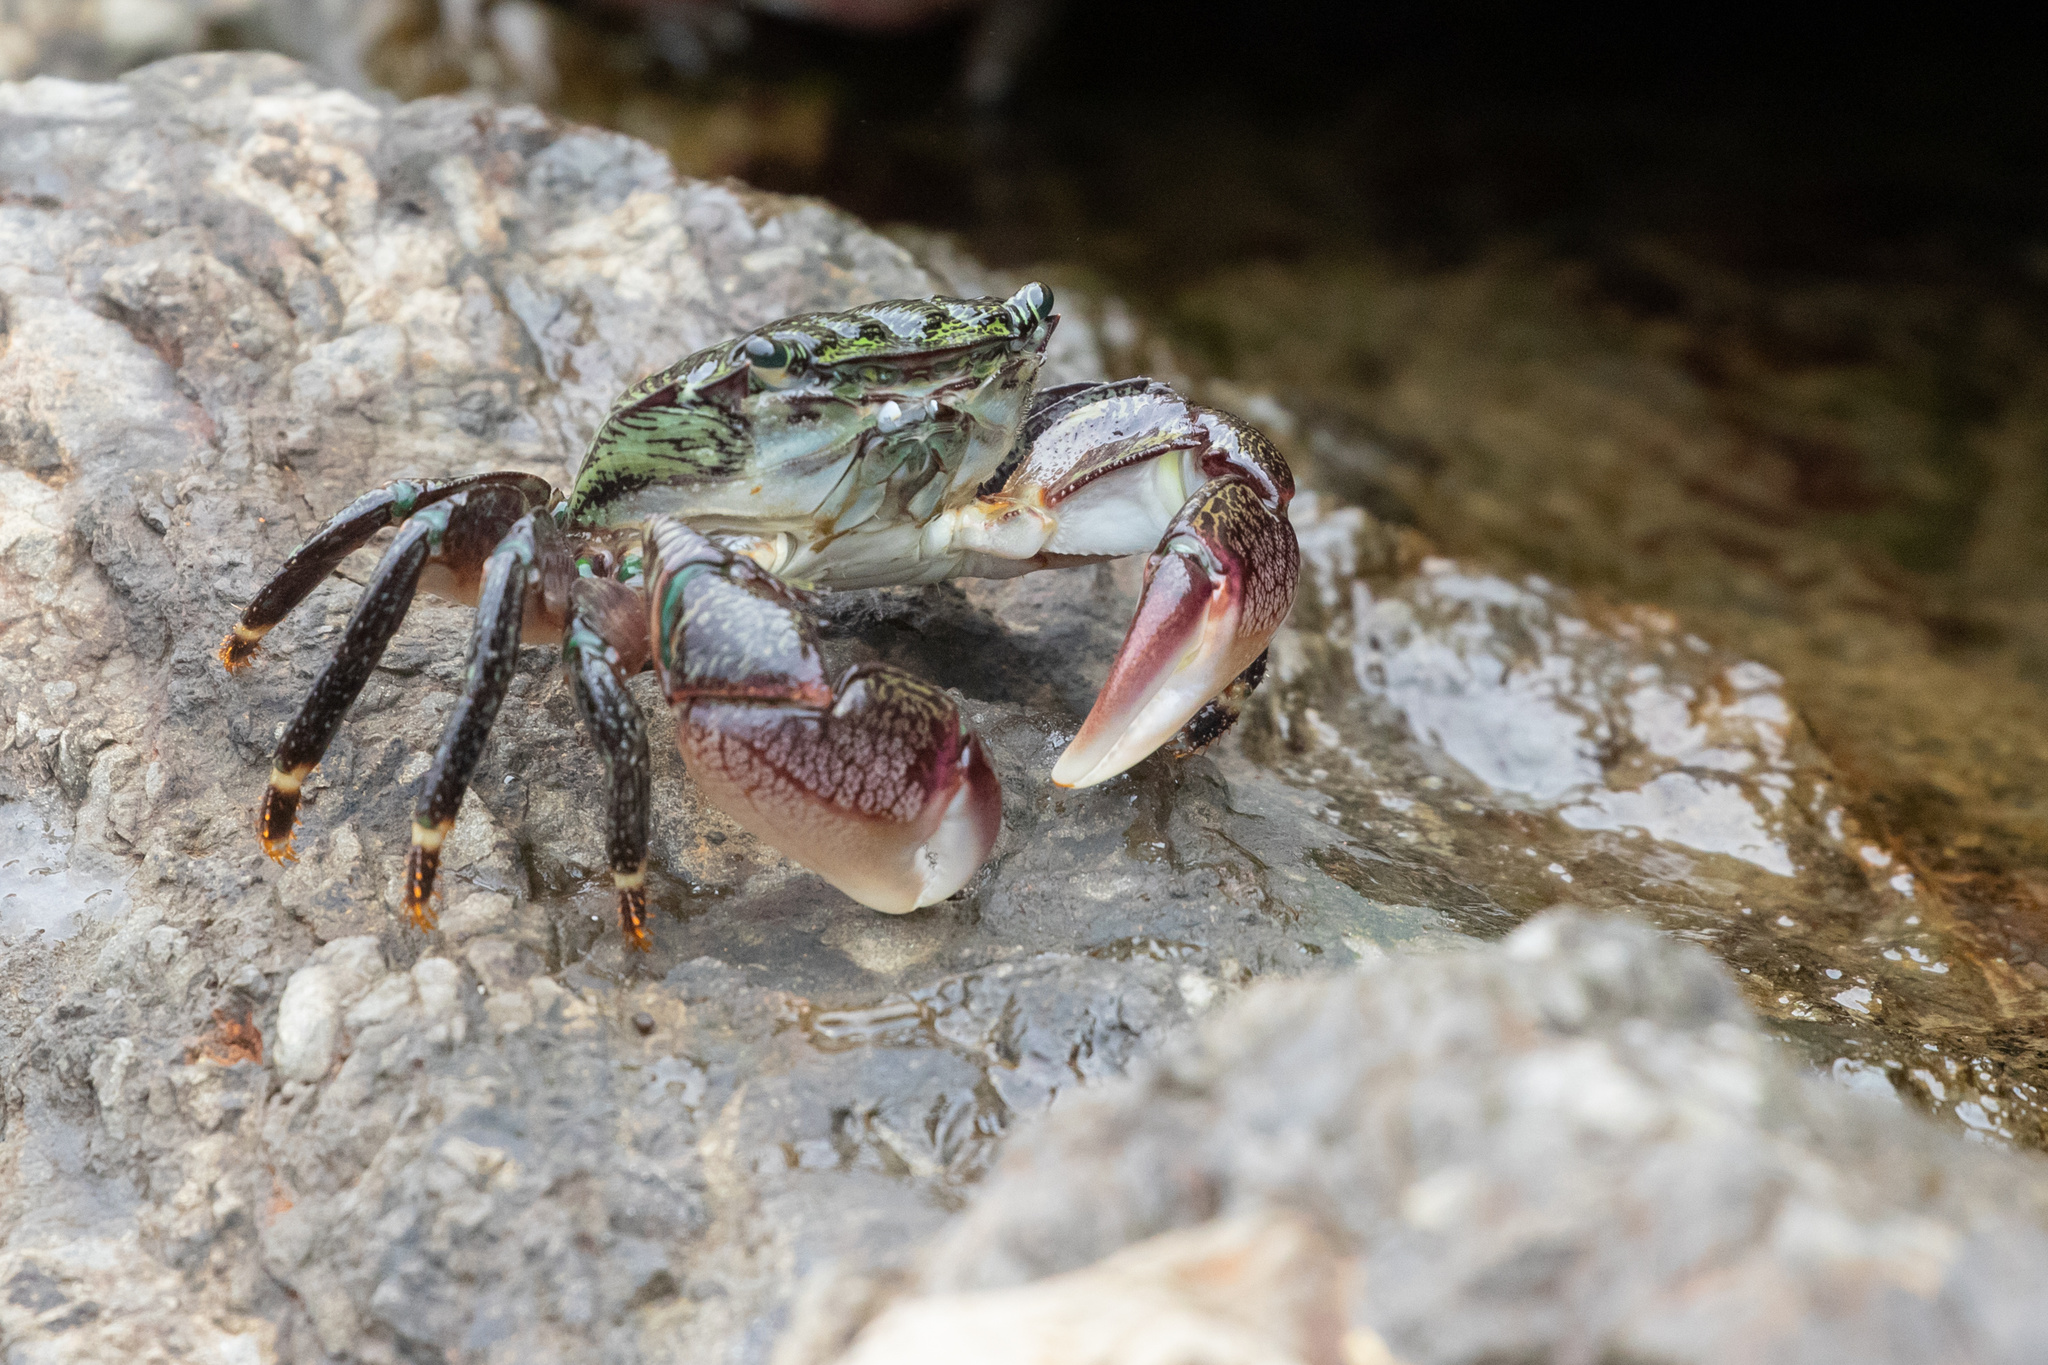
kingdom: Animalia
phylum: Arthropoda
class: Malacostraca
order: Decapoda
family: Grapsidae
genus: Pachygrapsus
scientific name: Pachygrapsus crassipes
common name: Striped shore crab
